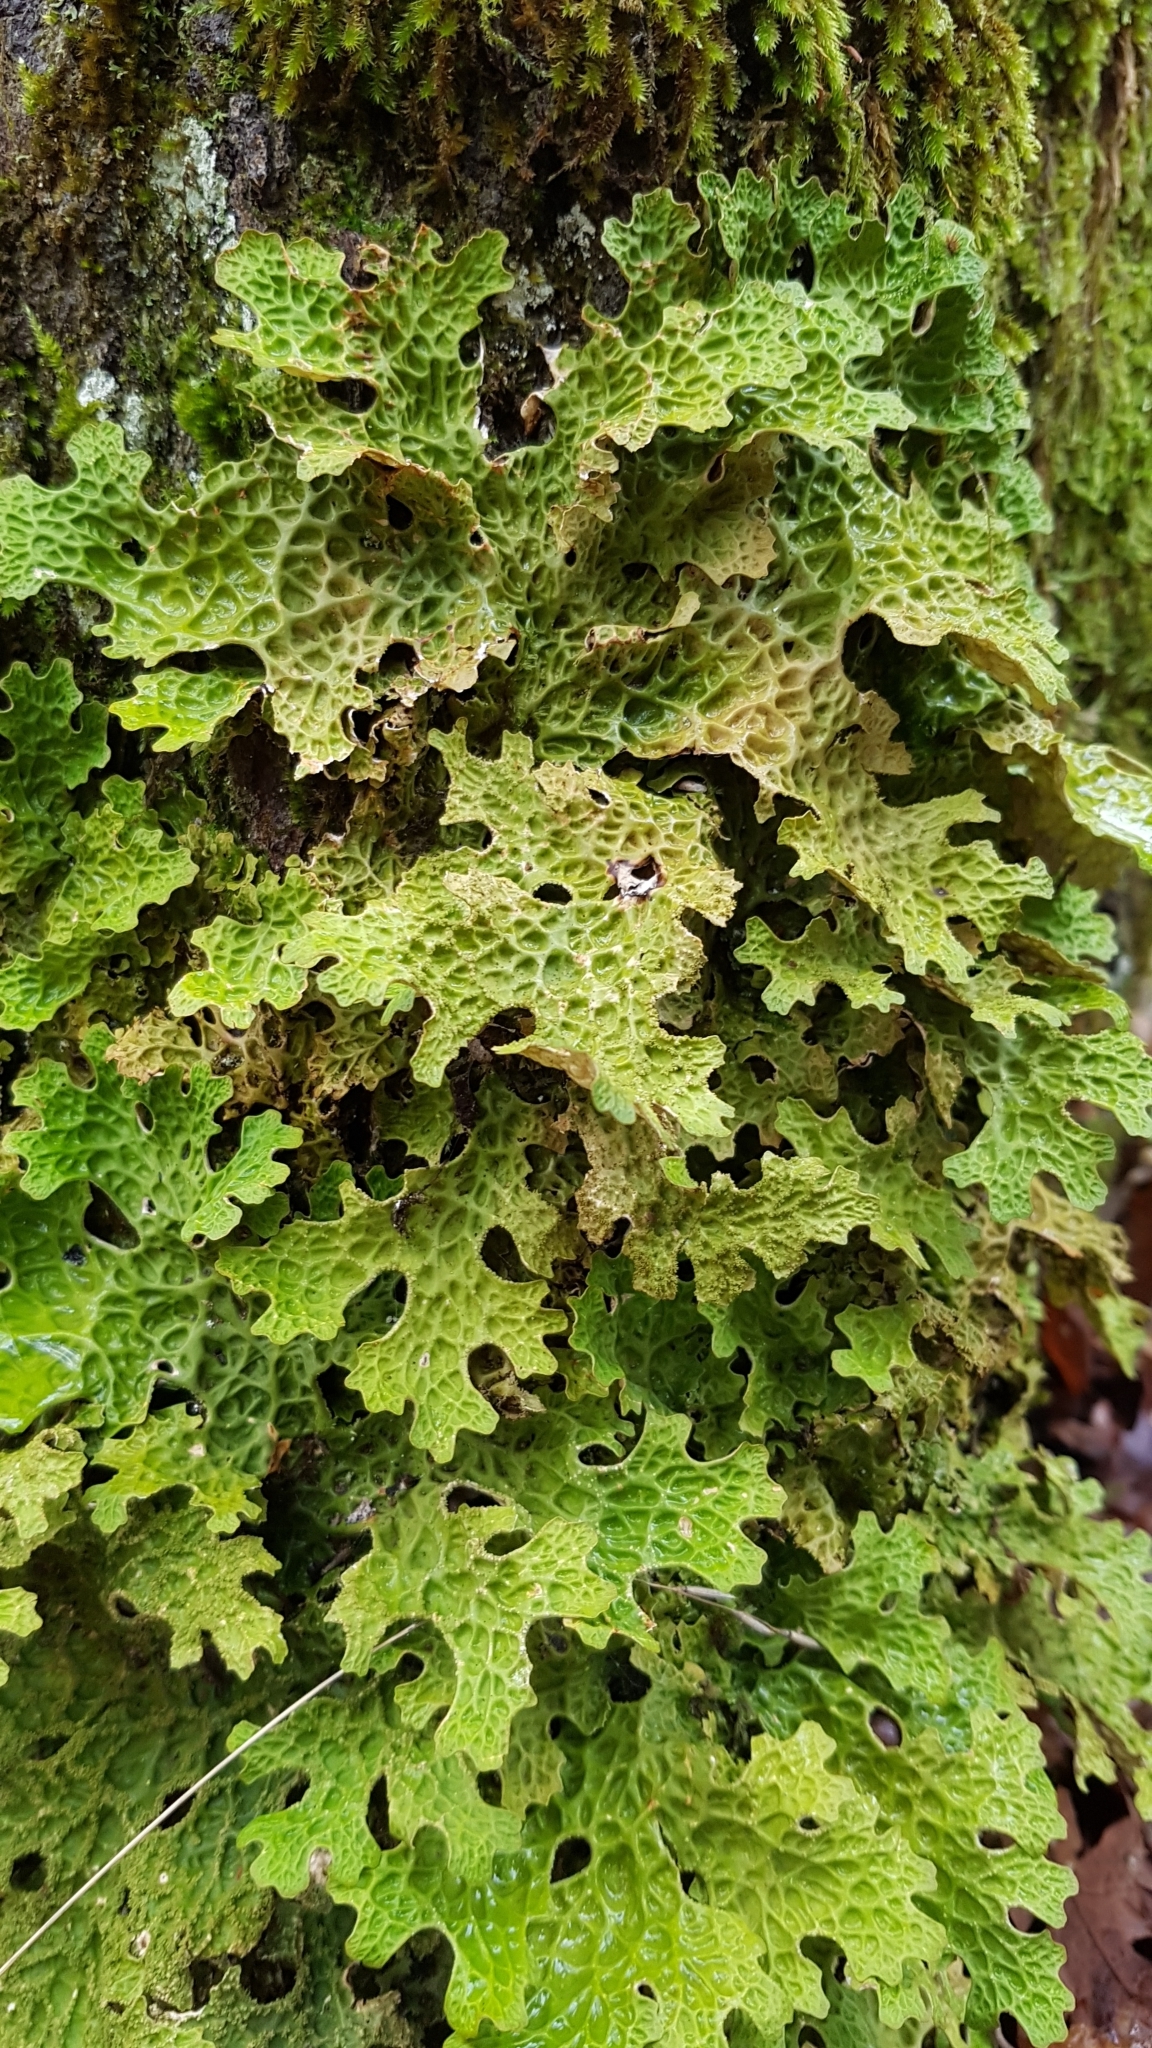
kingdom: Fungi
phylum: Ascomycota
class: Lecanoromycetes
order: Peltigerales
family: Lobariaceae
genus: Lobaria
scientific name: Lobaria pulmonaria
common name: Lungwort
